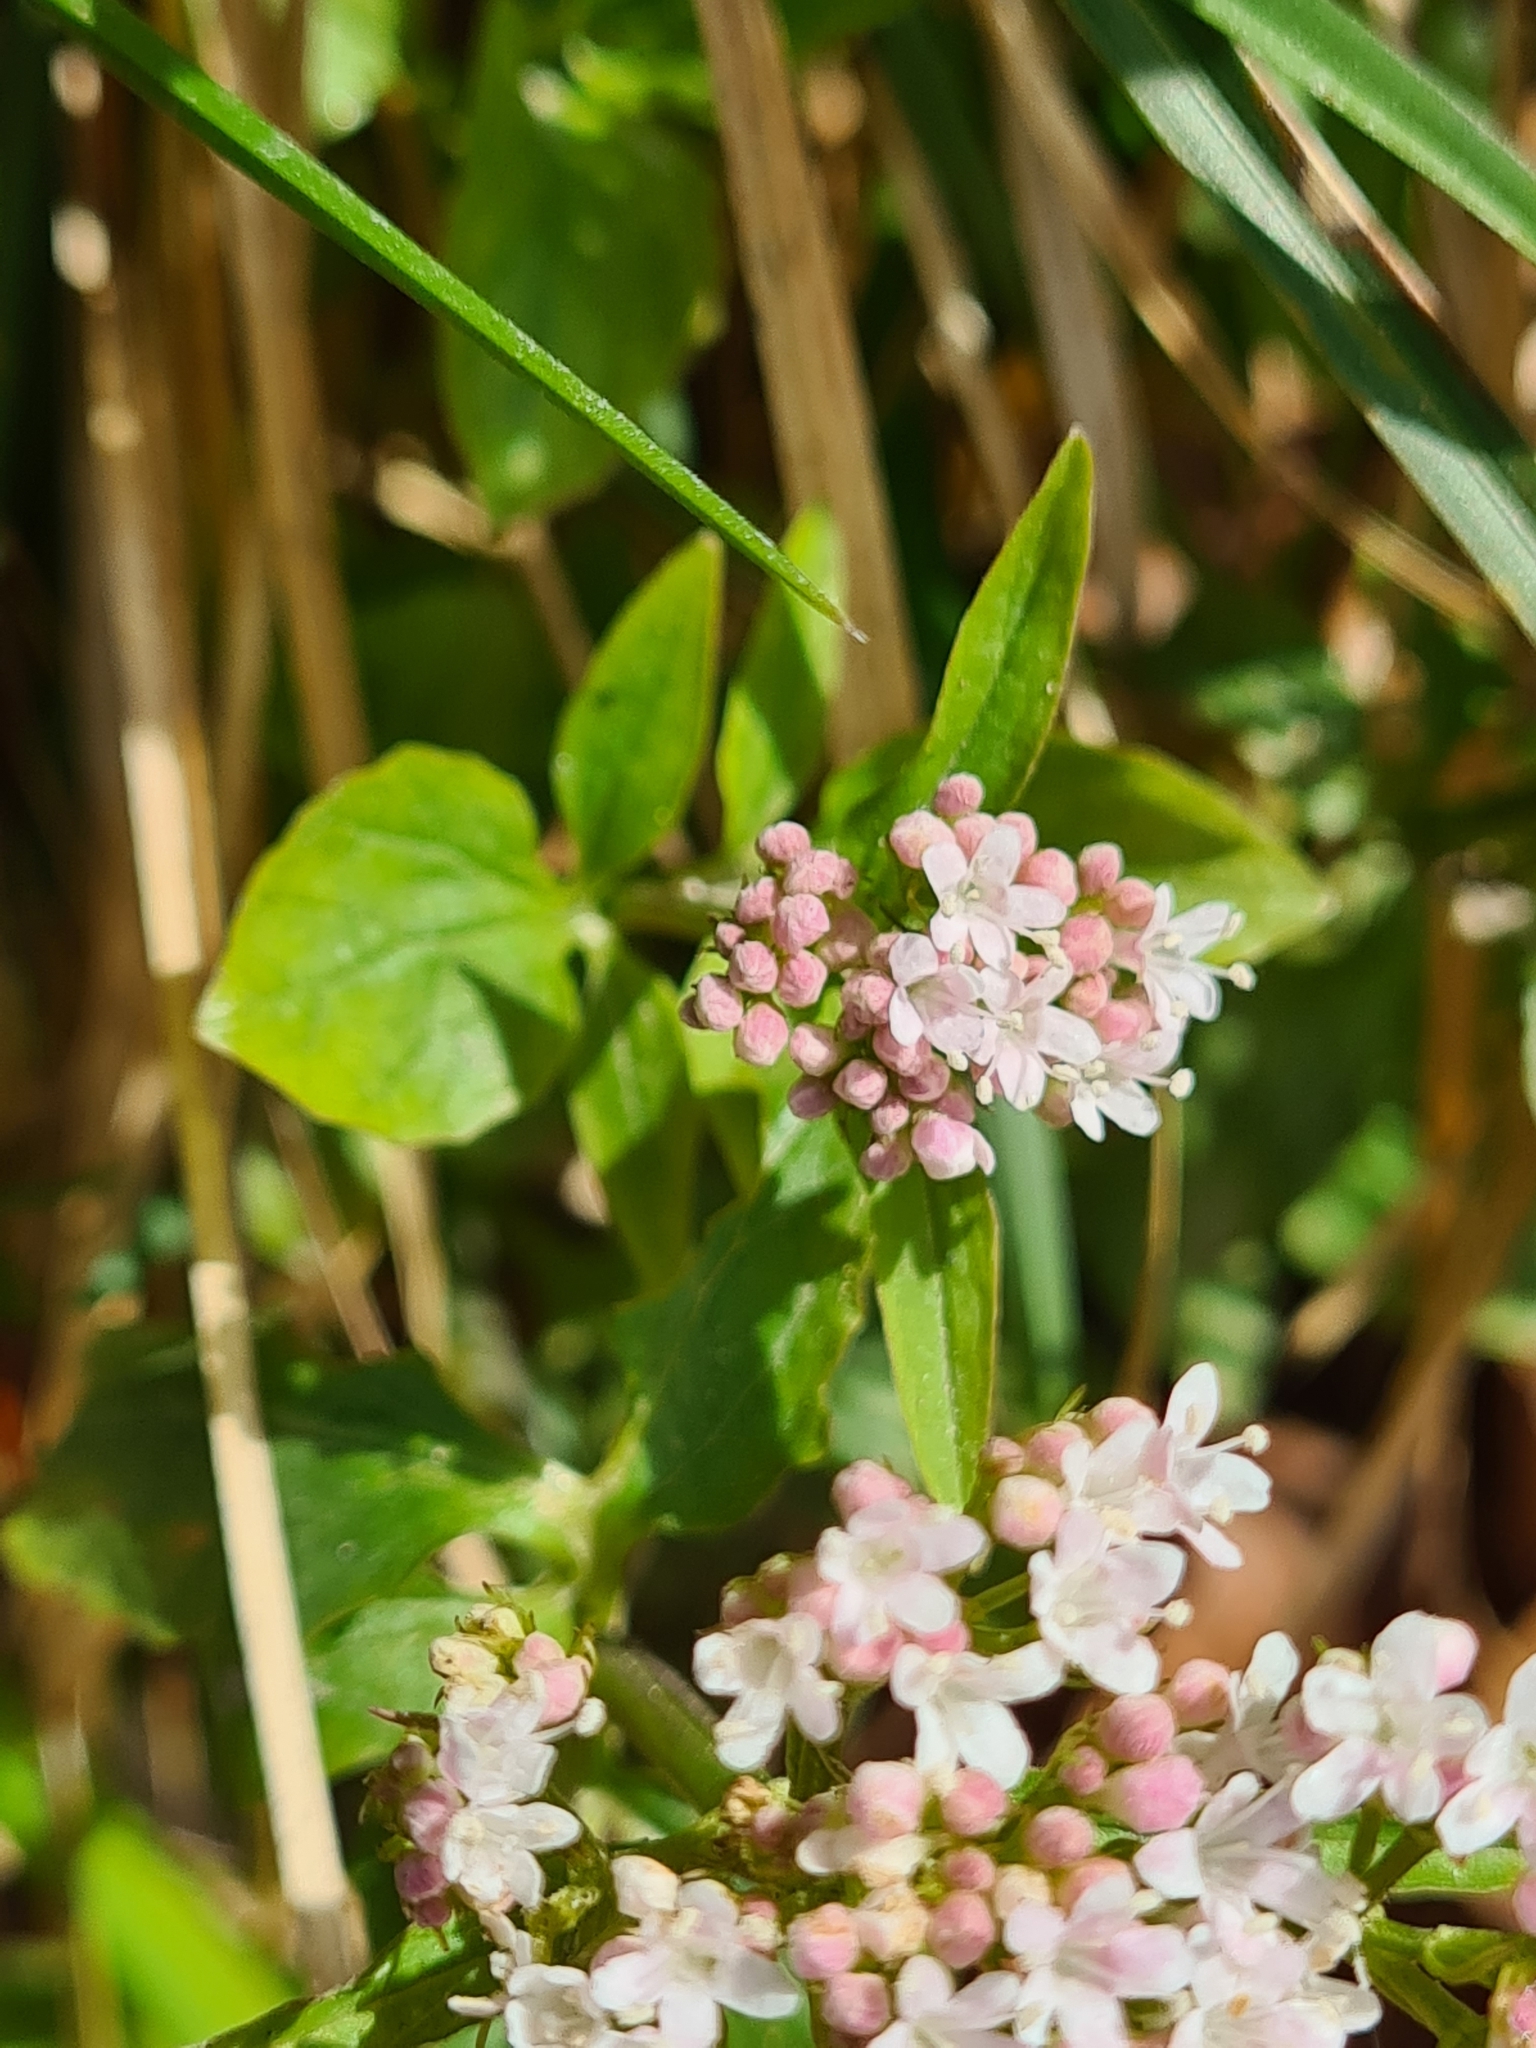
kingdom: Plantae
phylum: Tracheophyta
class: Magnoliopsida
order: Dipsacales
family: Caprifoliaceae
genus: Valeriana
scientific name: Valeriana tripteris
